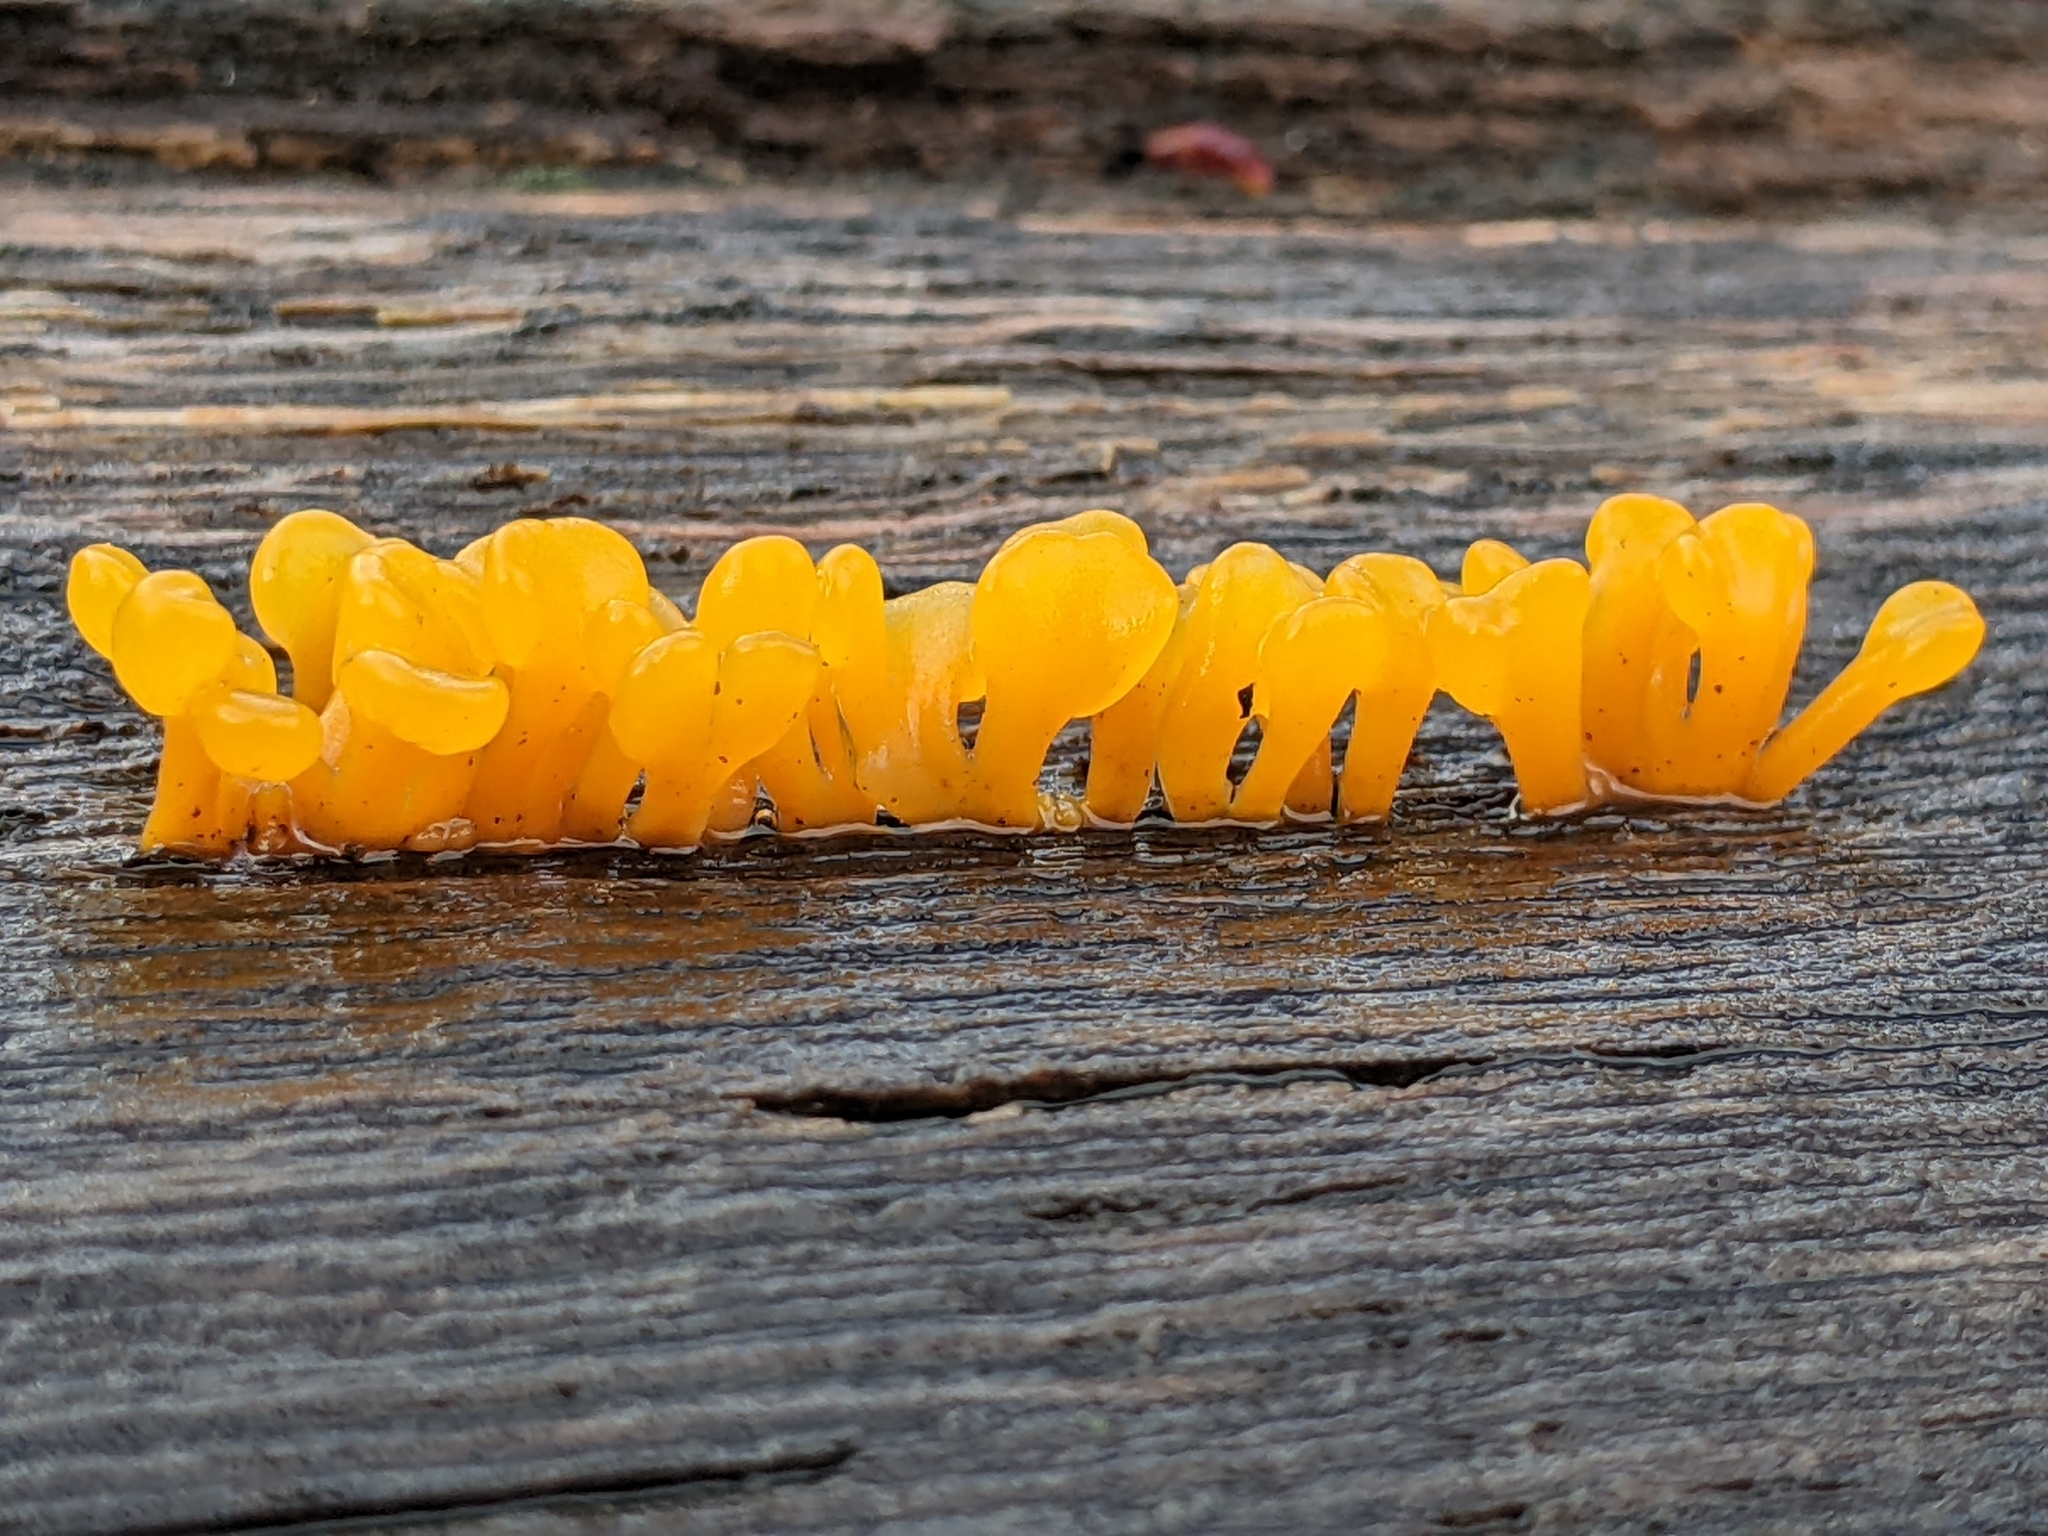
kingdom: Fungi
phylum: Basidiomycota
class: Dacrymycetes
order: Dacrymycetales
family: Dacrymycetaceae
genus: Dacrymyces
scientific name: Dacrymyces spathularius
